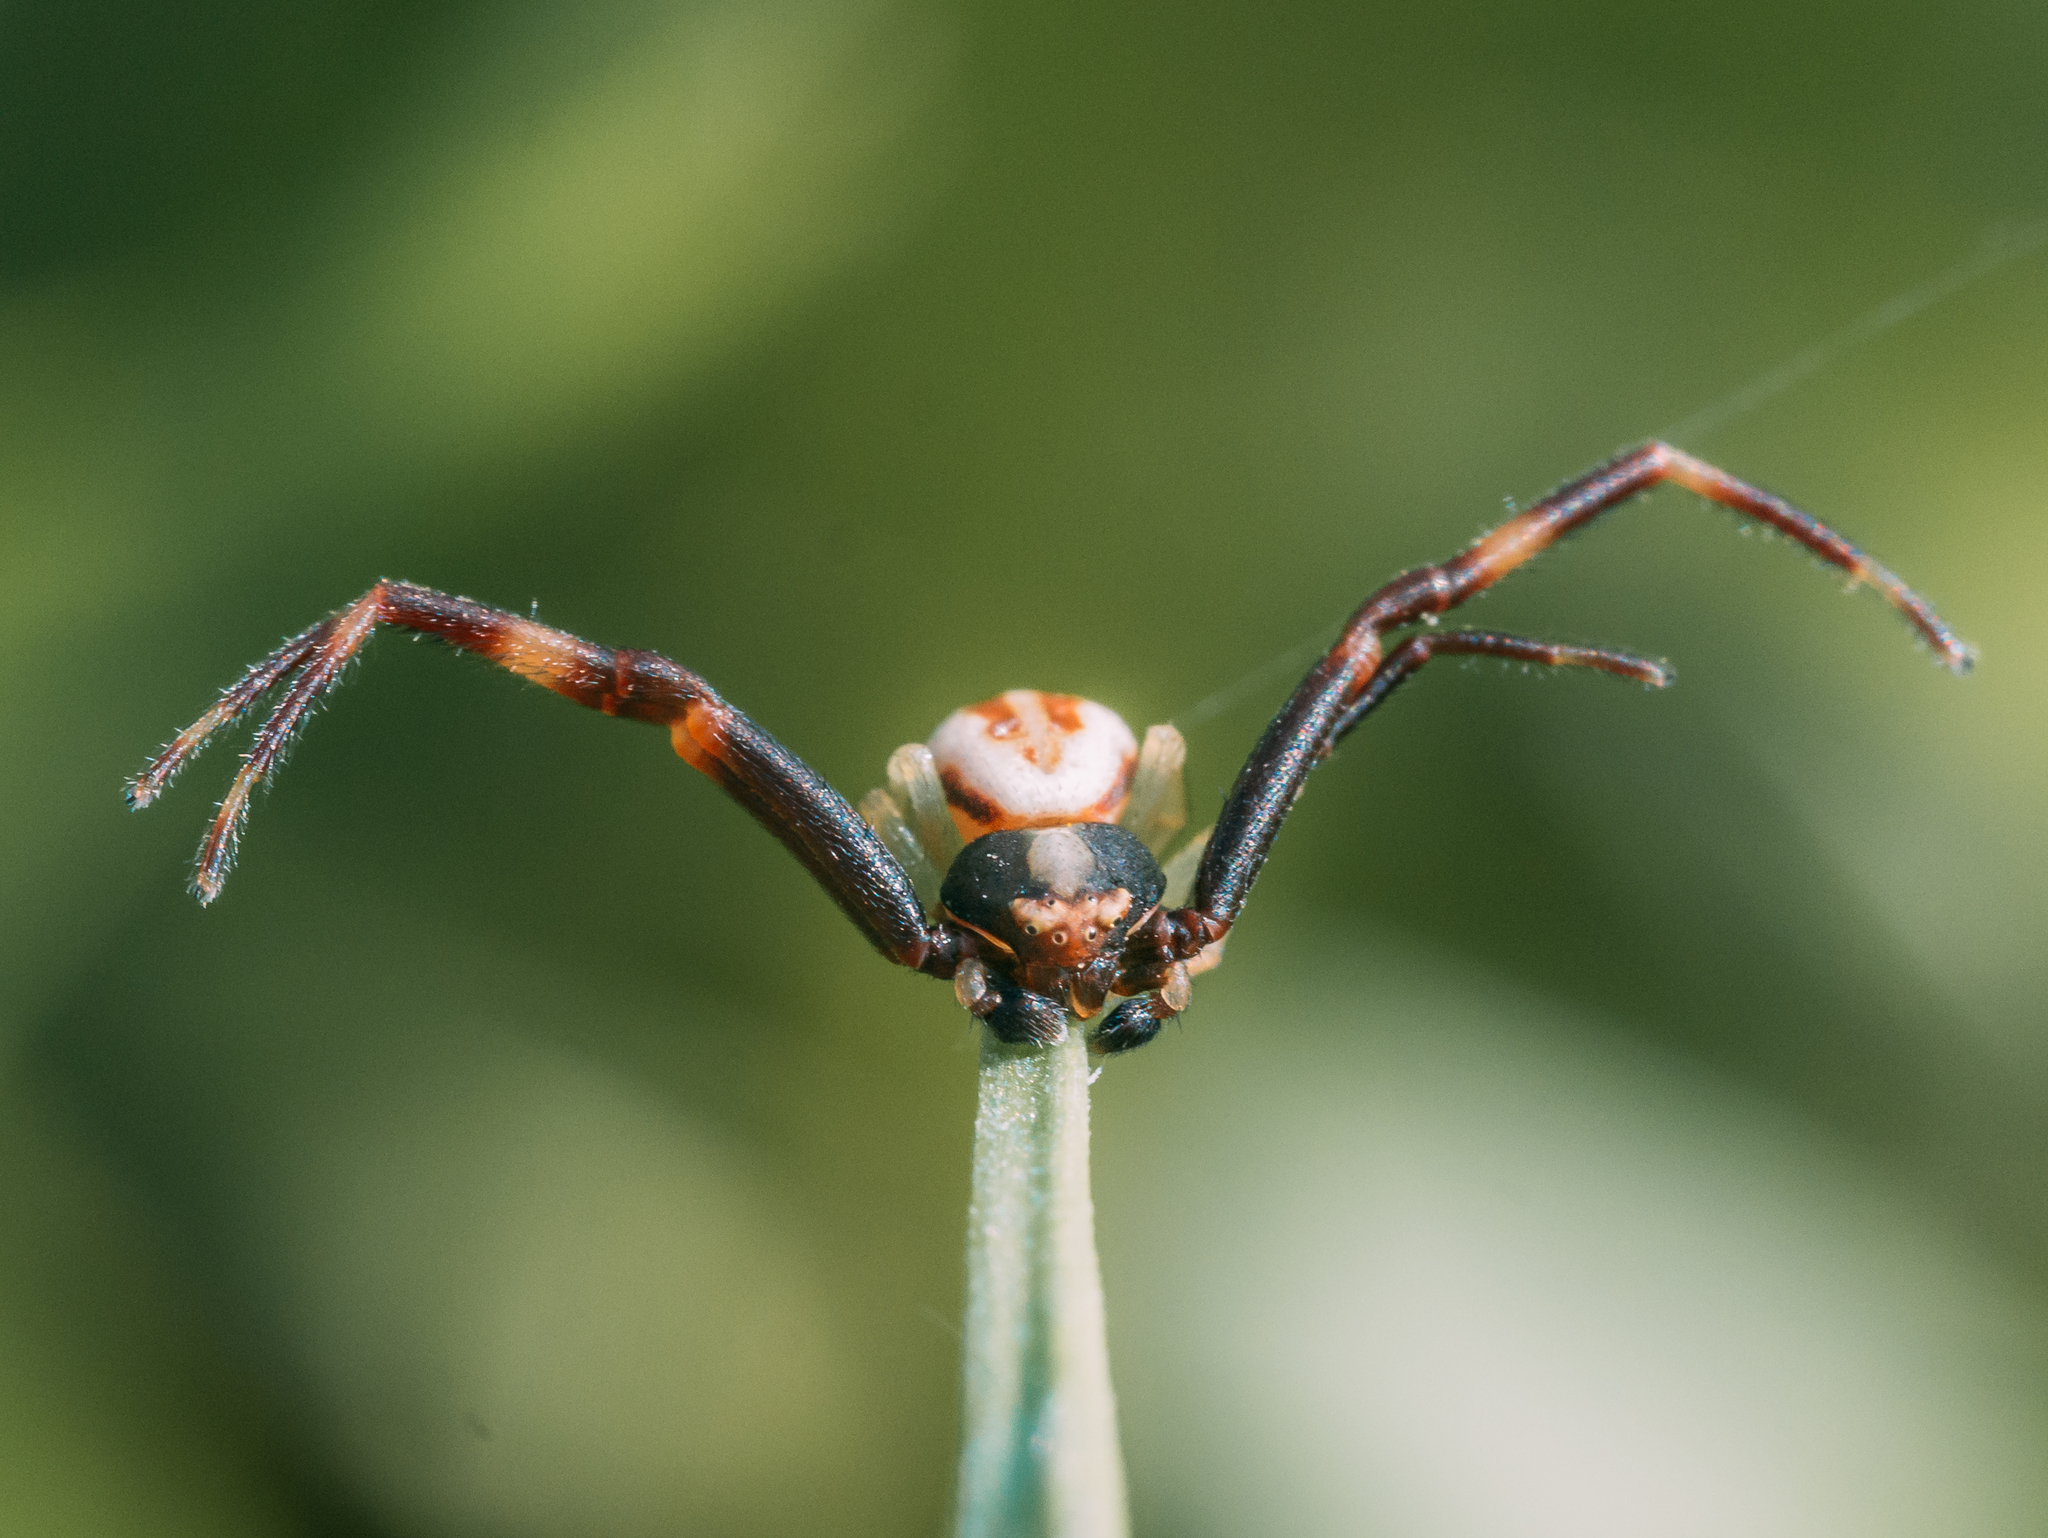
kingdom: Animalia
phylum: Arthropoda
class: Arachnida
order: Araneae
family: Thomisidae
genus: Misumena
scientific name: Misumena vatia
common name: Goldenrod crab spider
